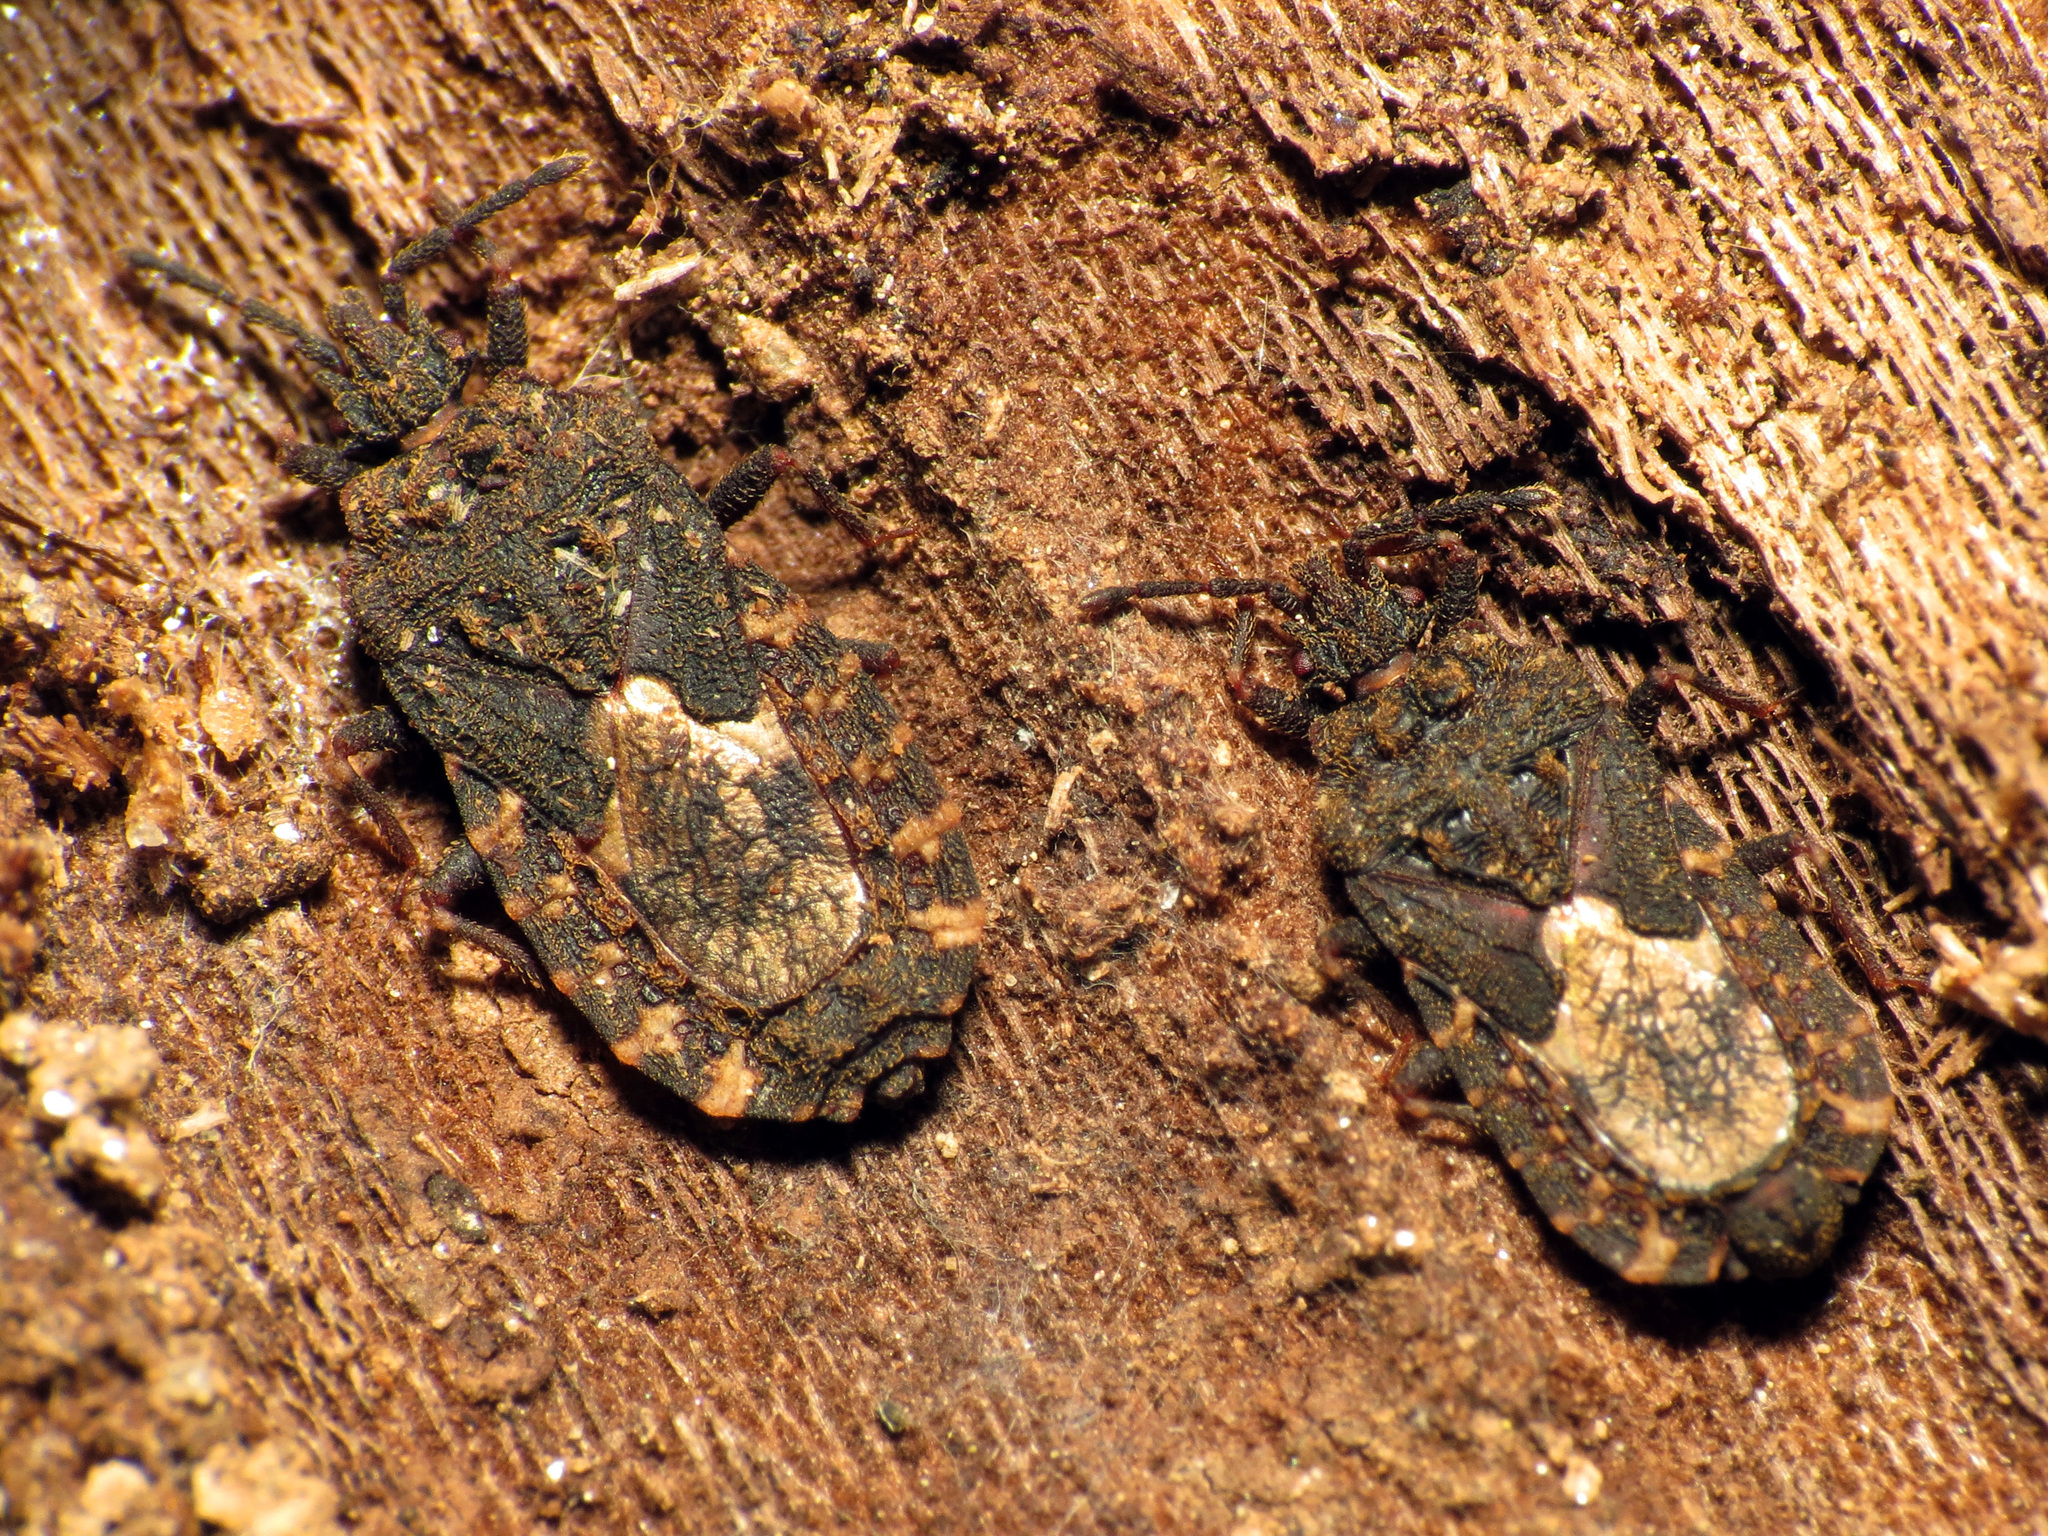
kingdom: Animalia
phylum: Arthropoda
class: Insecta
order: Hemiptera
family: Aradidae
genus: Mezira
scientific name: Mezira
